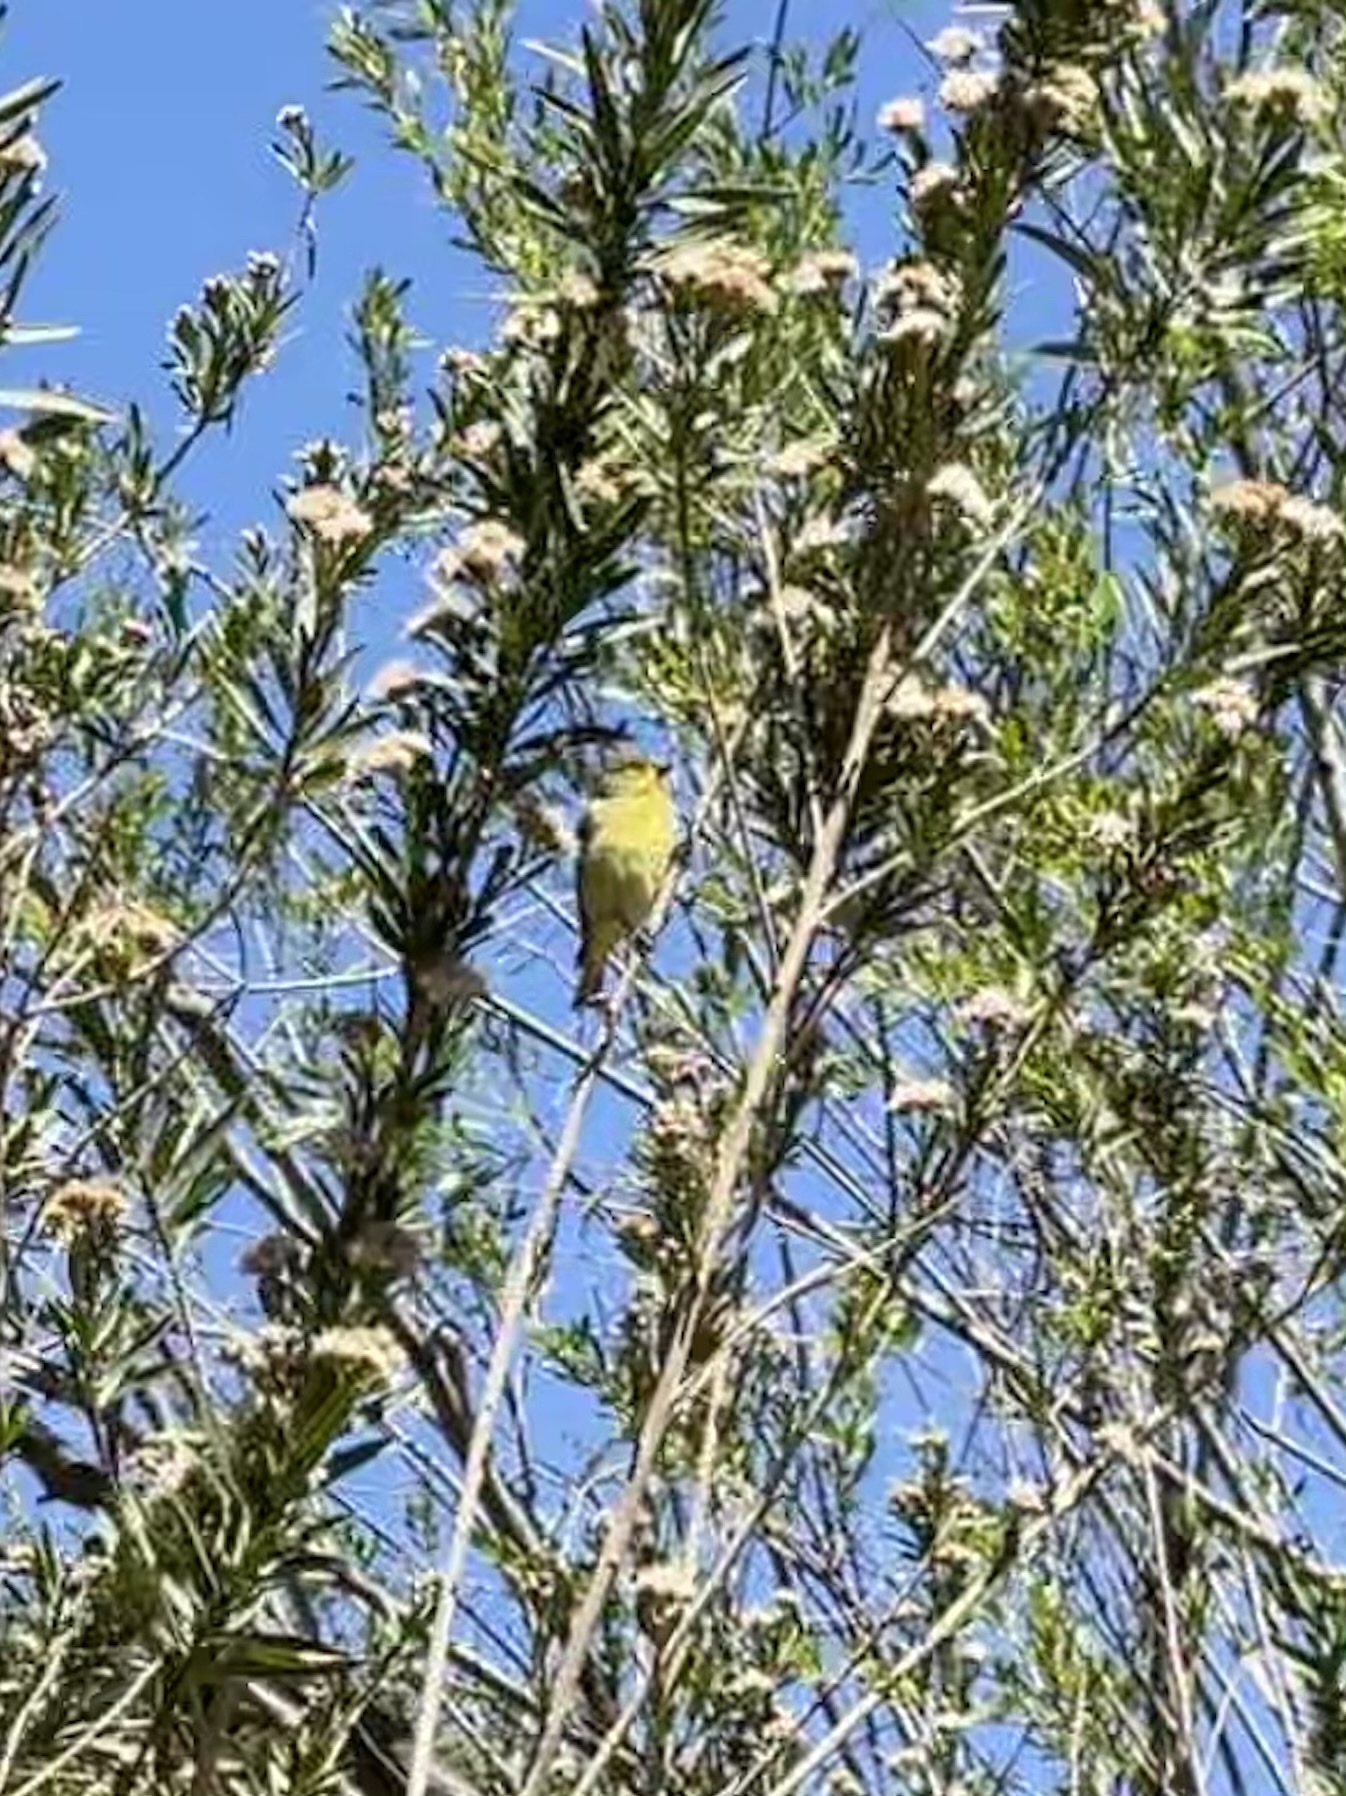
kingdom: Animalia
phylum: Chordata
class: Aves
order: Passeriformes
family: Fringillidae
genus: Spinus
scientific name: Spinus psaltria
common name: Lesser goldfinch
